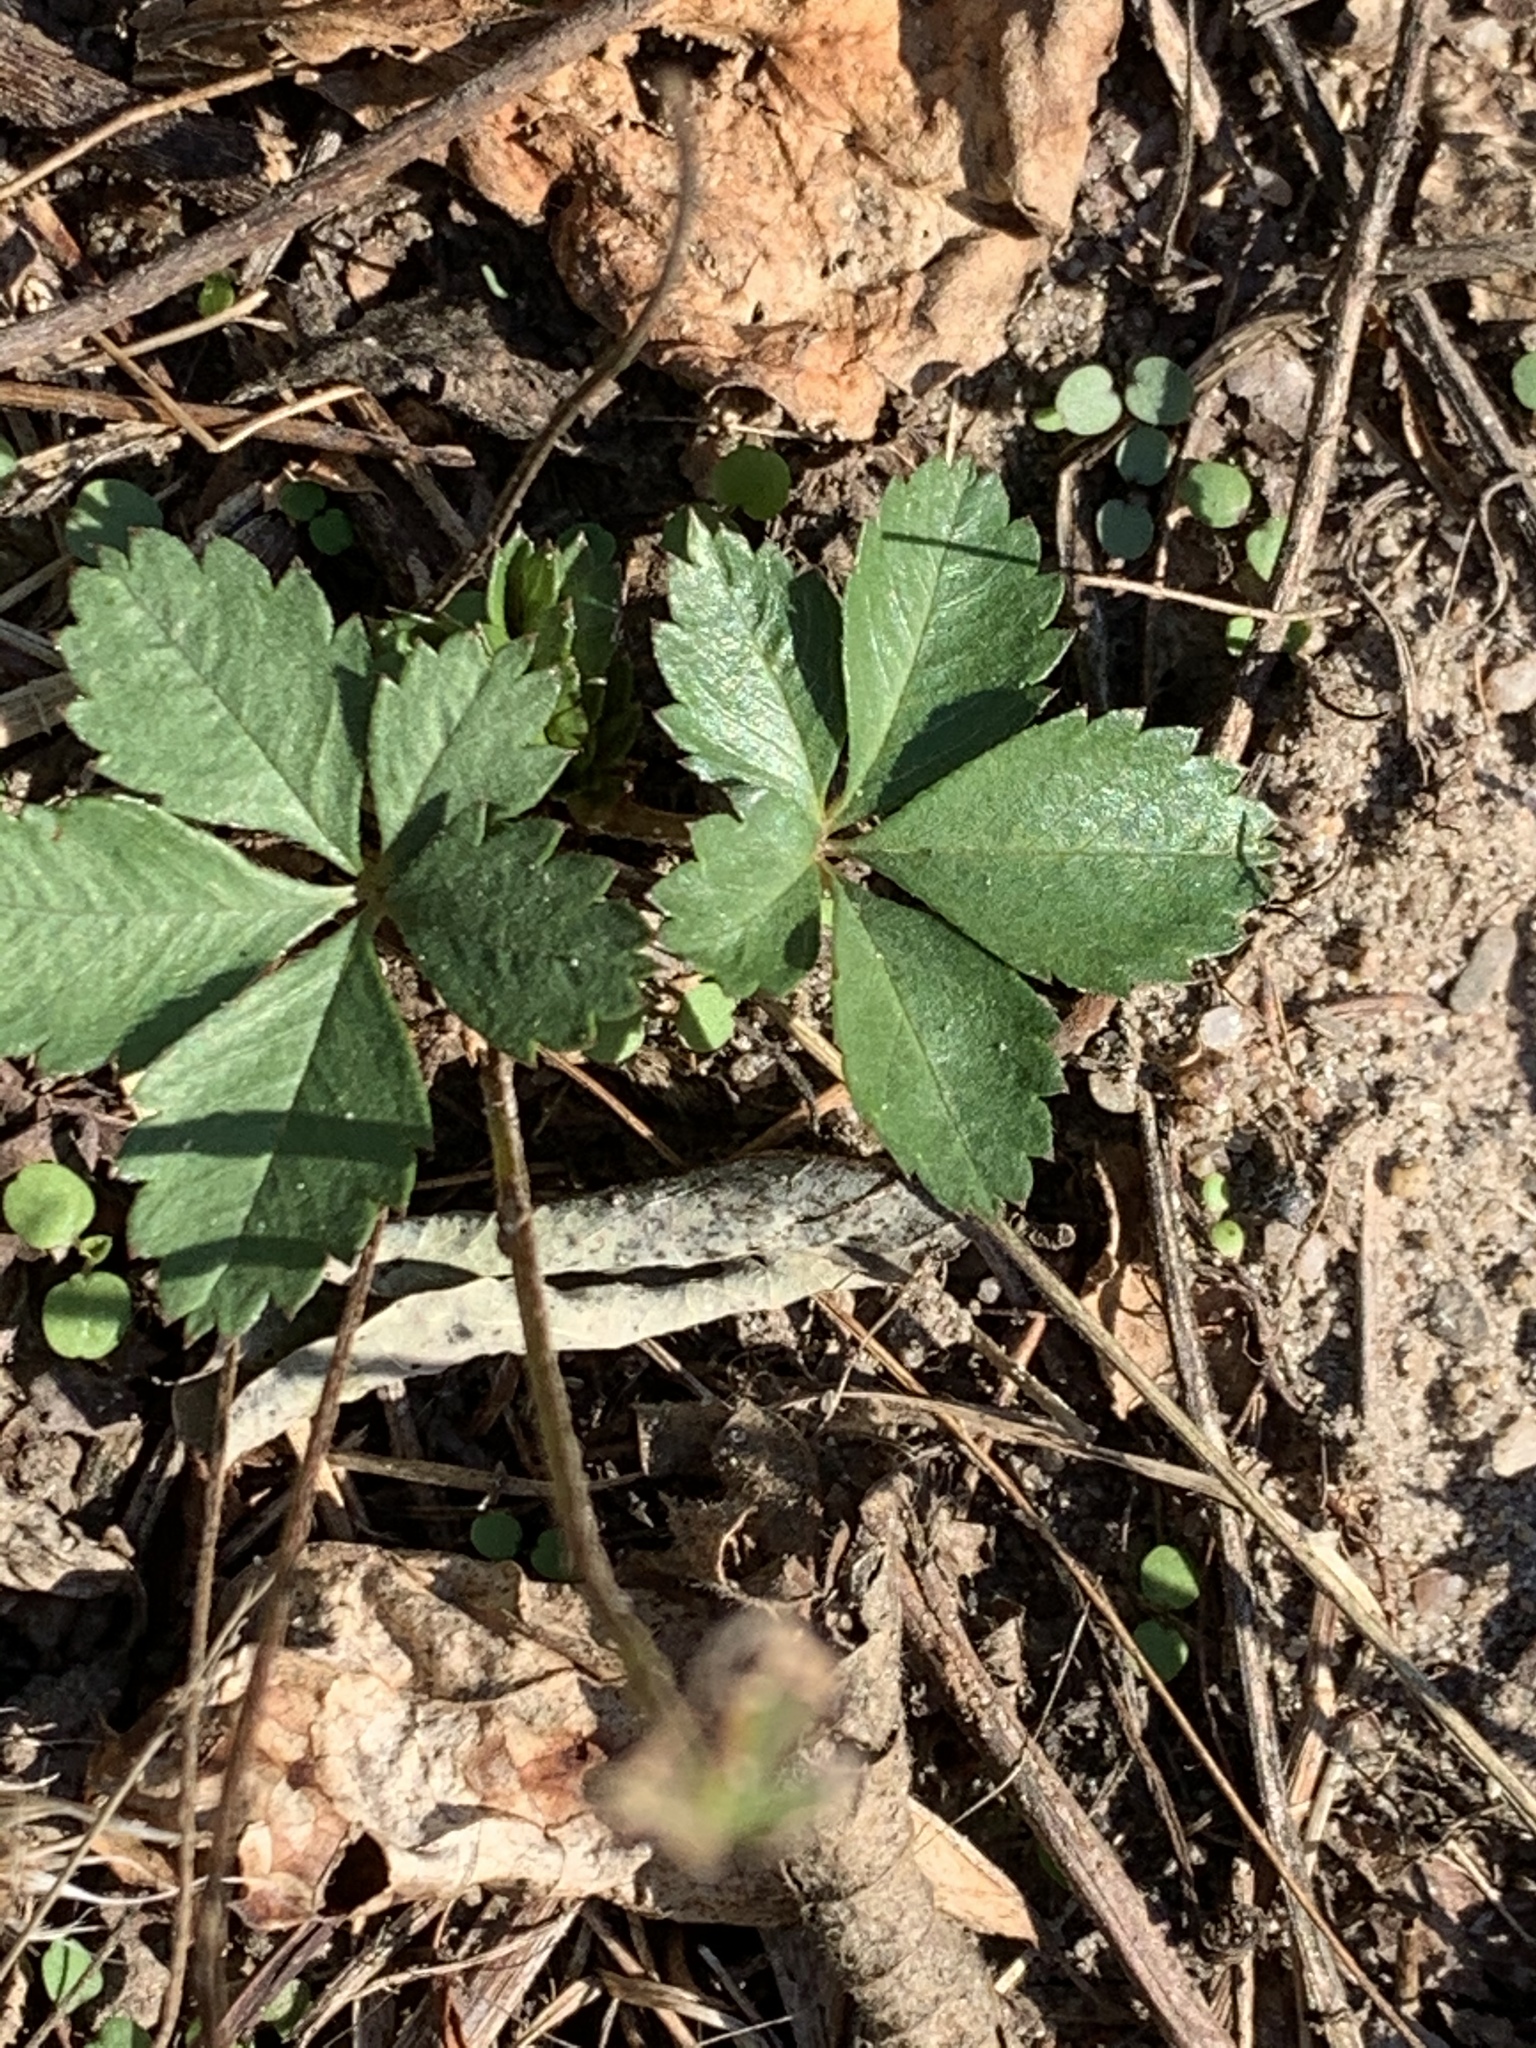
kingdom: Plantae
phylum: Tracheophyta
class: Magnoliopsida
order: Rosales
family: Rosaceae
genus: Potentilla
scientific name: Potentilla canadensis
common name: Canada cinquefoil
